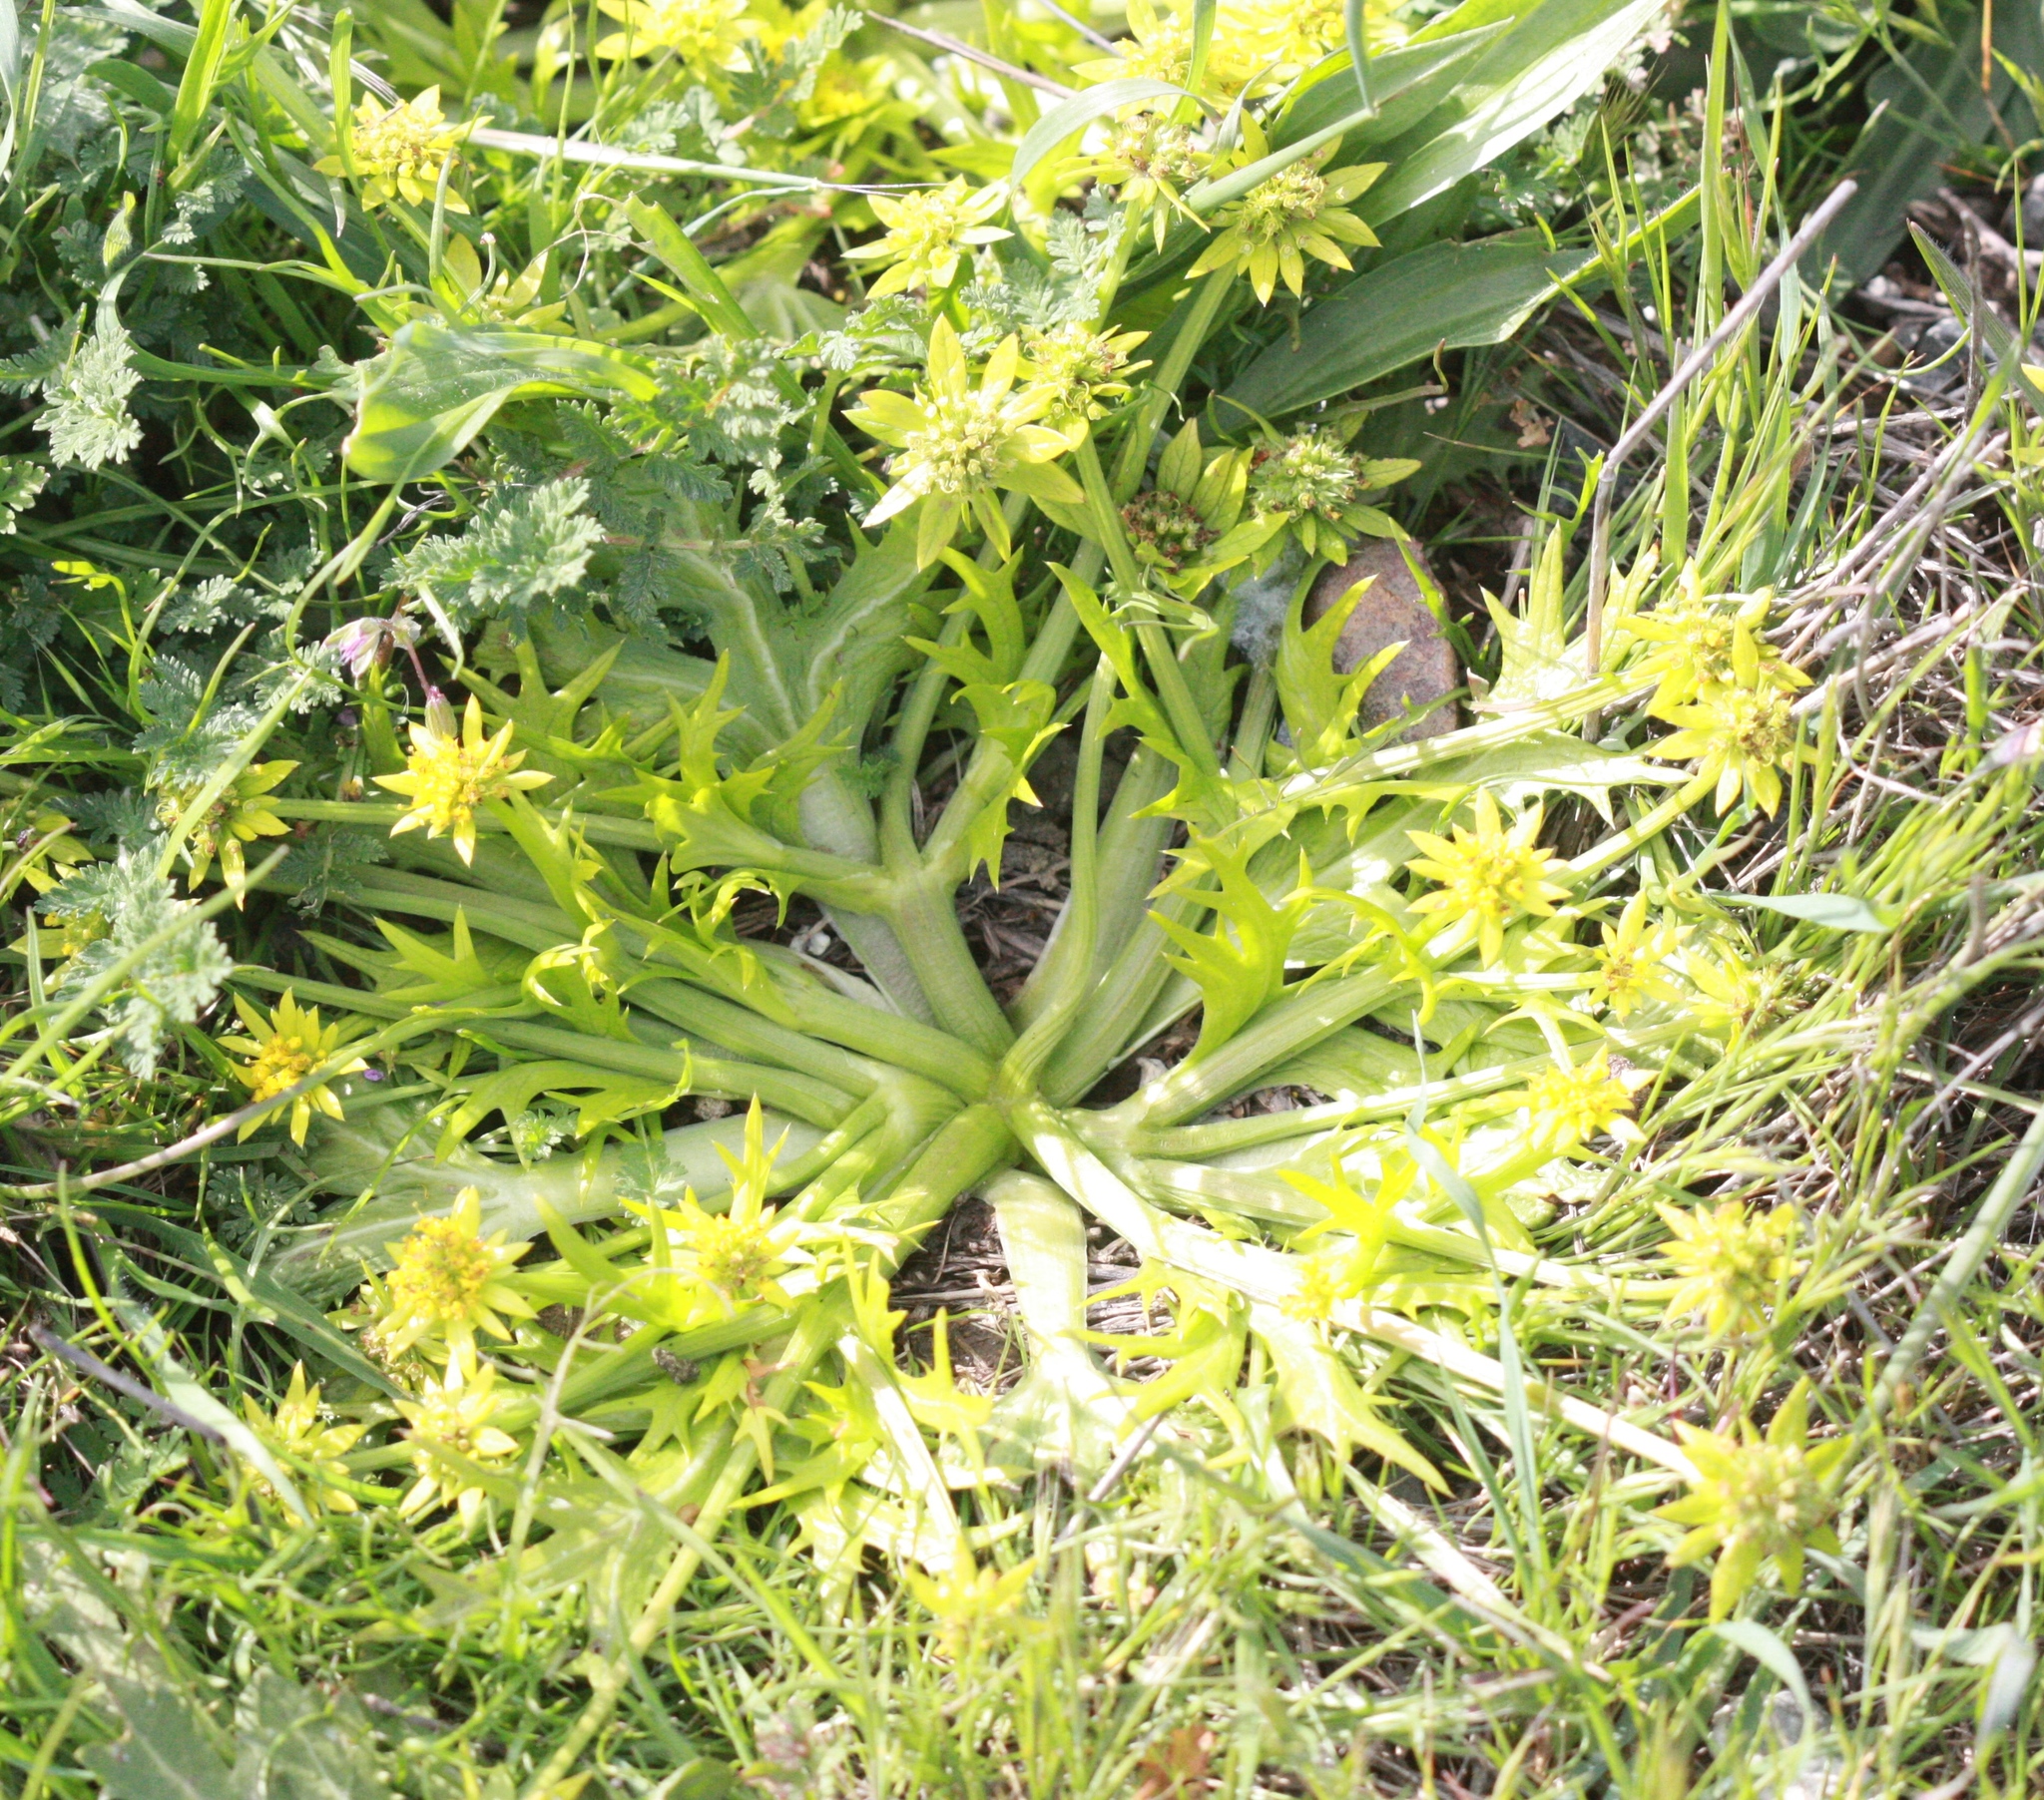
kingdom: Plantae
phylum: Tracheophyta
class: Magnoliopsida
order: Apiales
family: Apiaceae
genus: Sanicula
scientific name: Sanicula arctopoides
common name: Footsteps-of-spring
